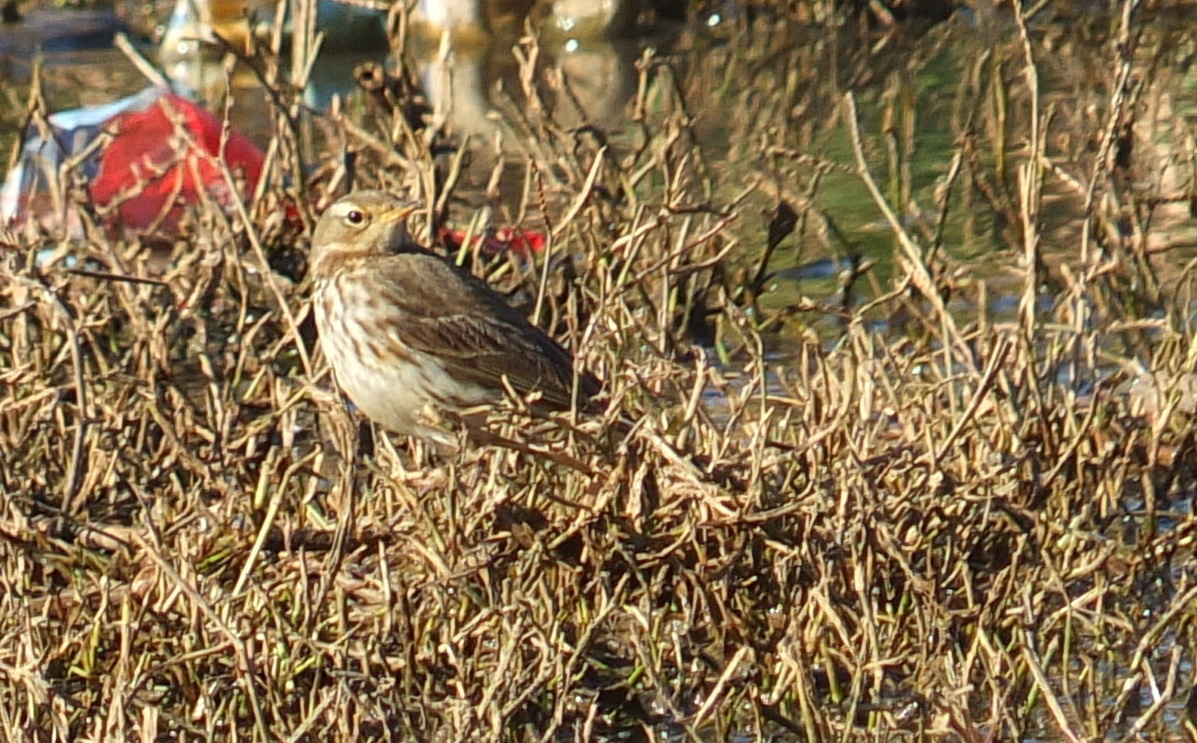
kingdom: Animalia
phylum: Chordata
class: Aves
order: Passeriformes
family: Motacillidae
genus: Anthus
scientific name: Anthus spinoletta
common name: Water pipit
